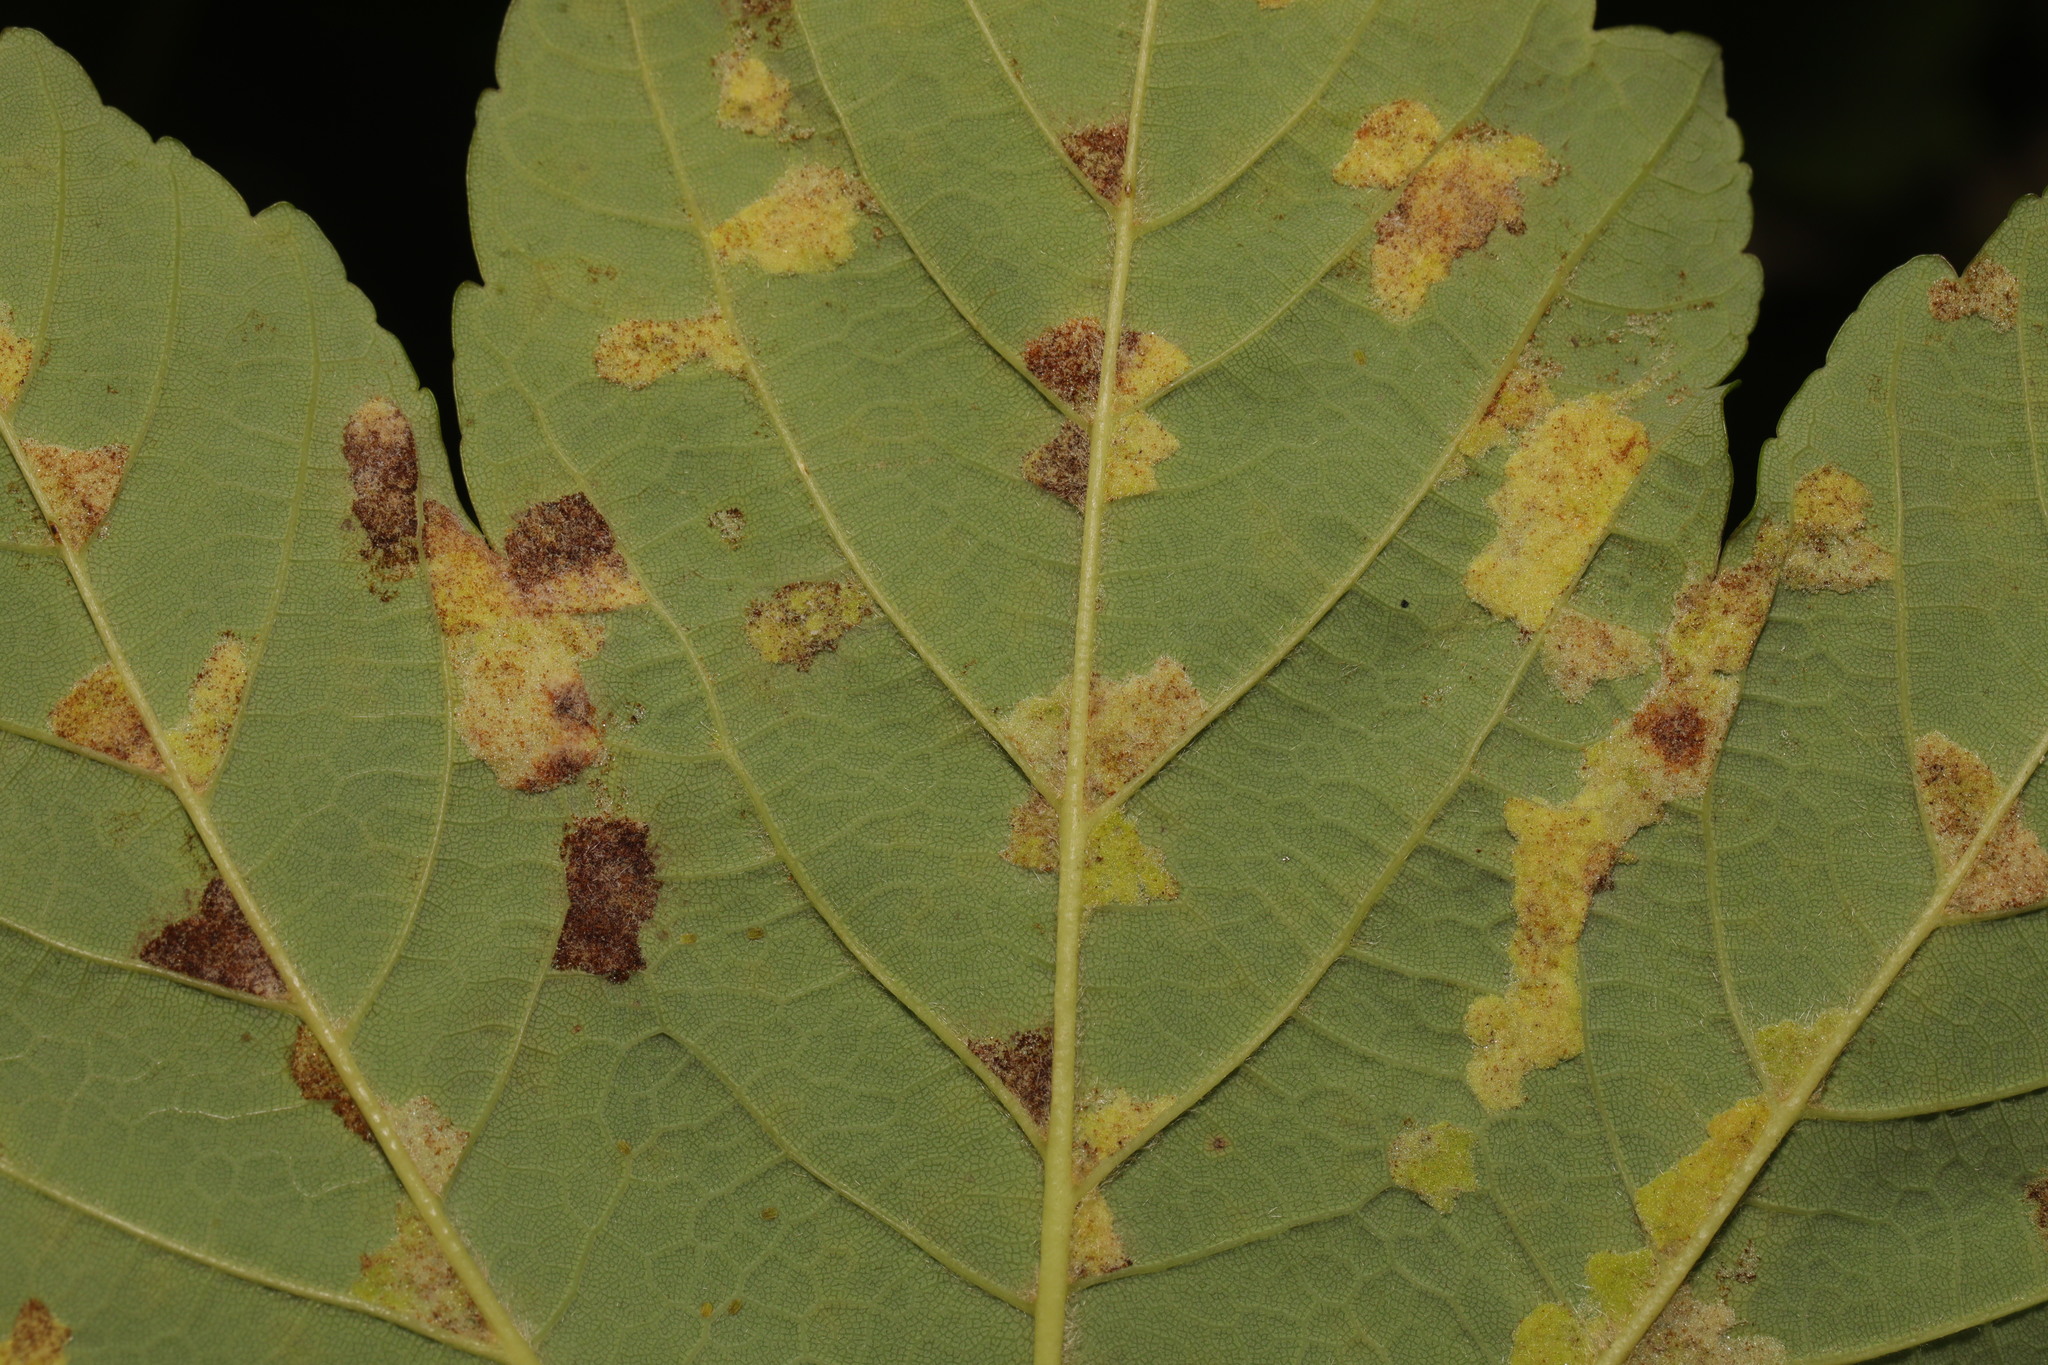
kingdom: Animalia
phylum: Arthropoda
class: Arachnida
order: Trombidiformes
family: Eriophyidae
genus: Aceria
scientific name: Aceria pseudoplatani
